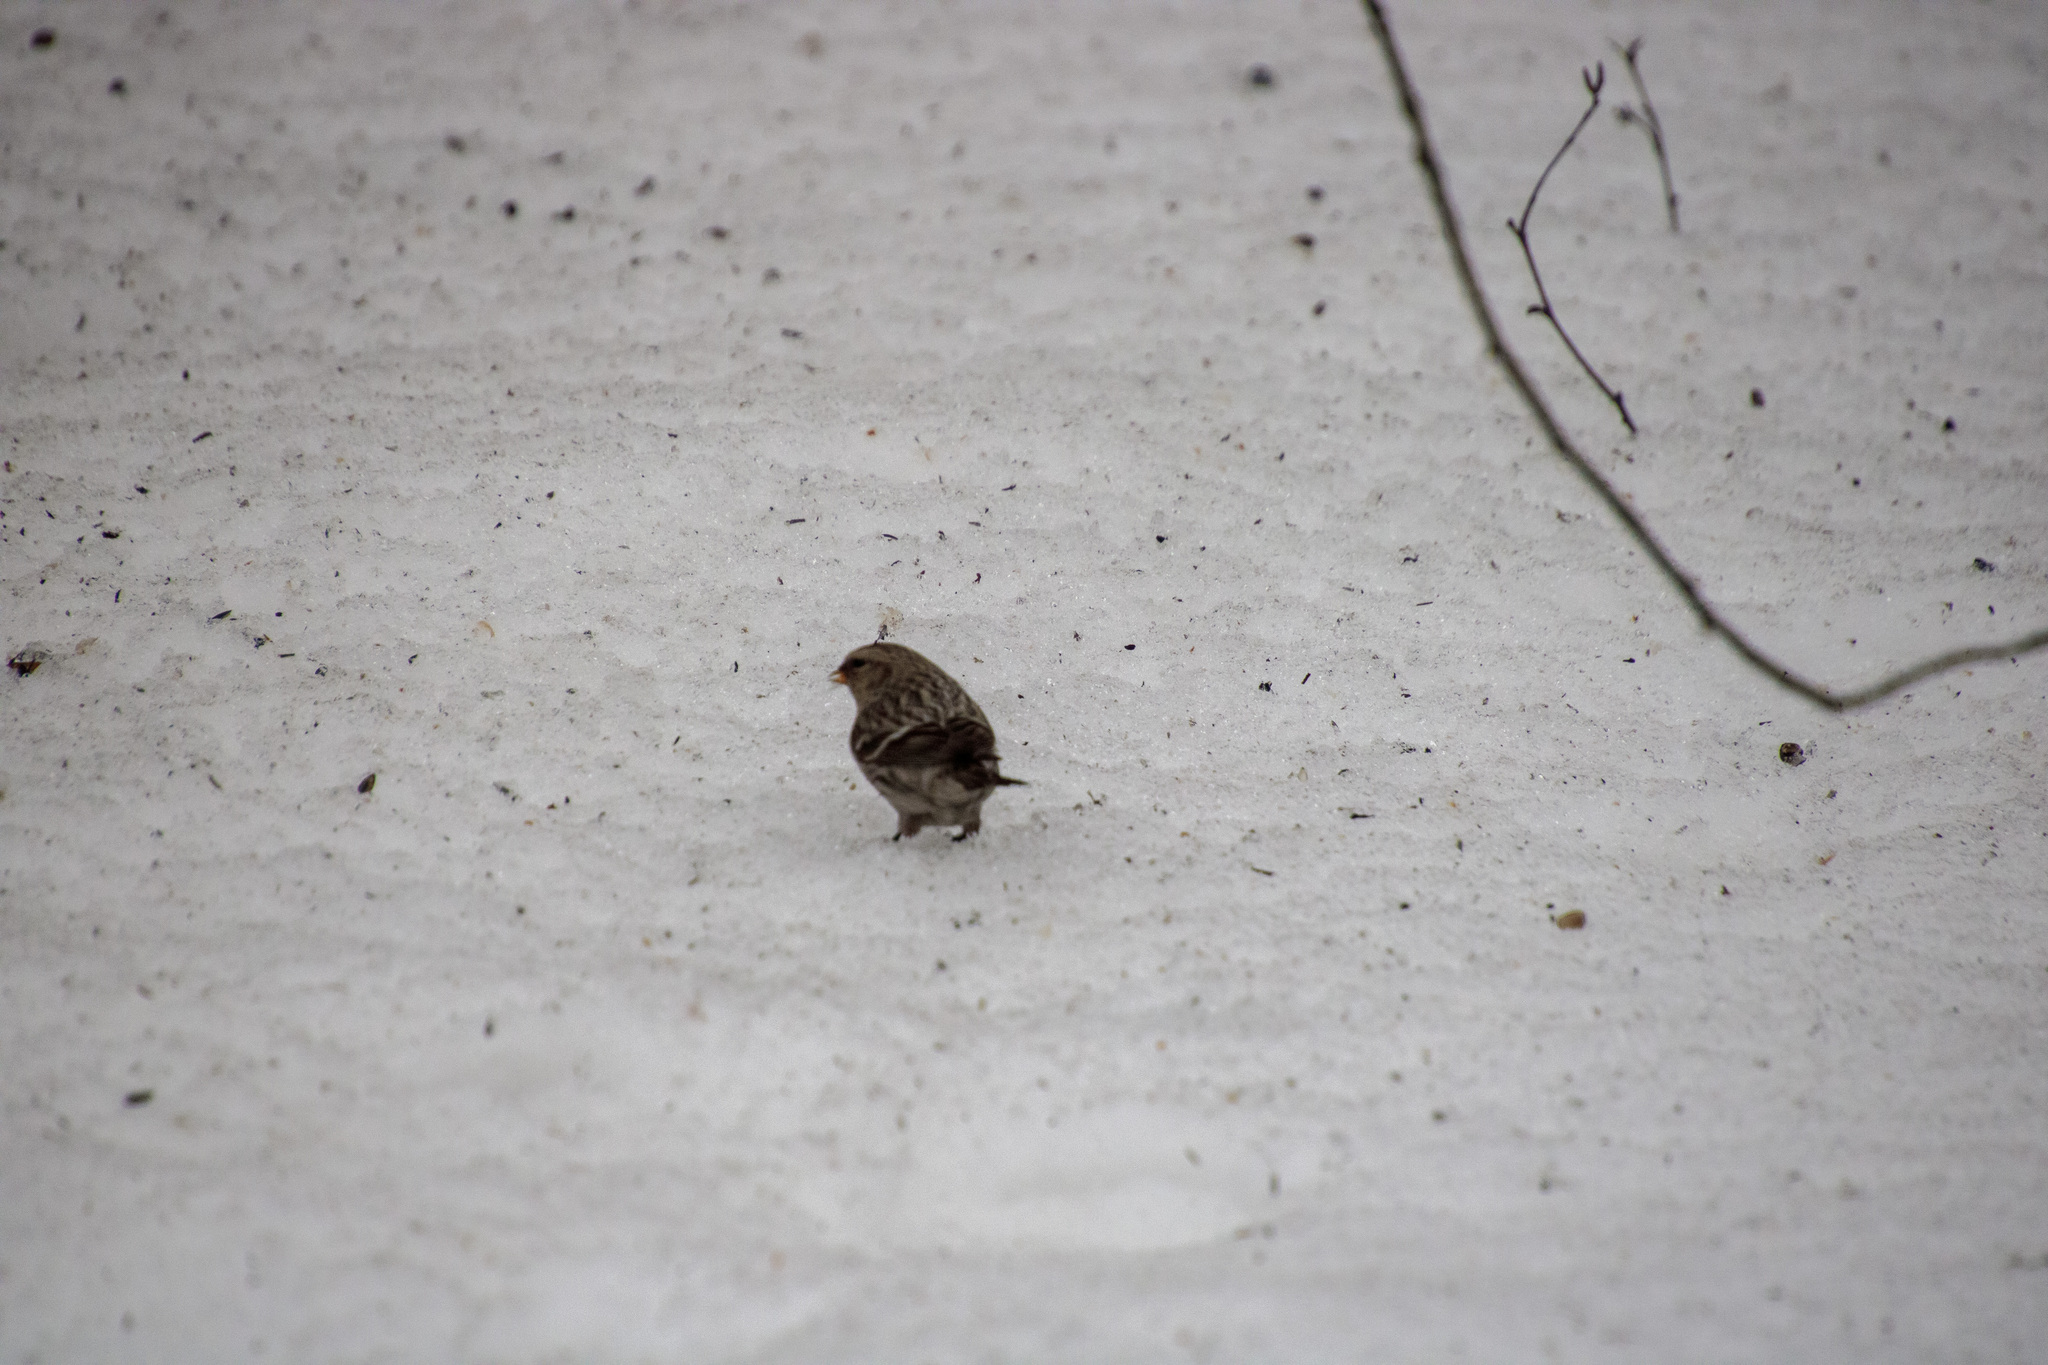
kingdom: Animalia
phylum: Chordata
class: Aves
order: Passeriformes
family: Fringillidae
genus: Acanthis
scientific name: Acanthis flammea
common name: Common redpoll
